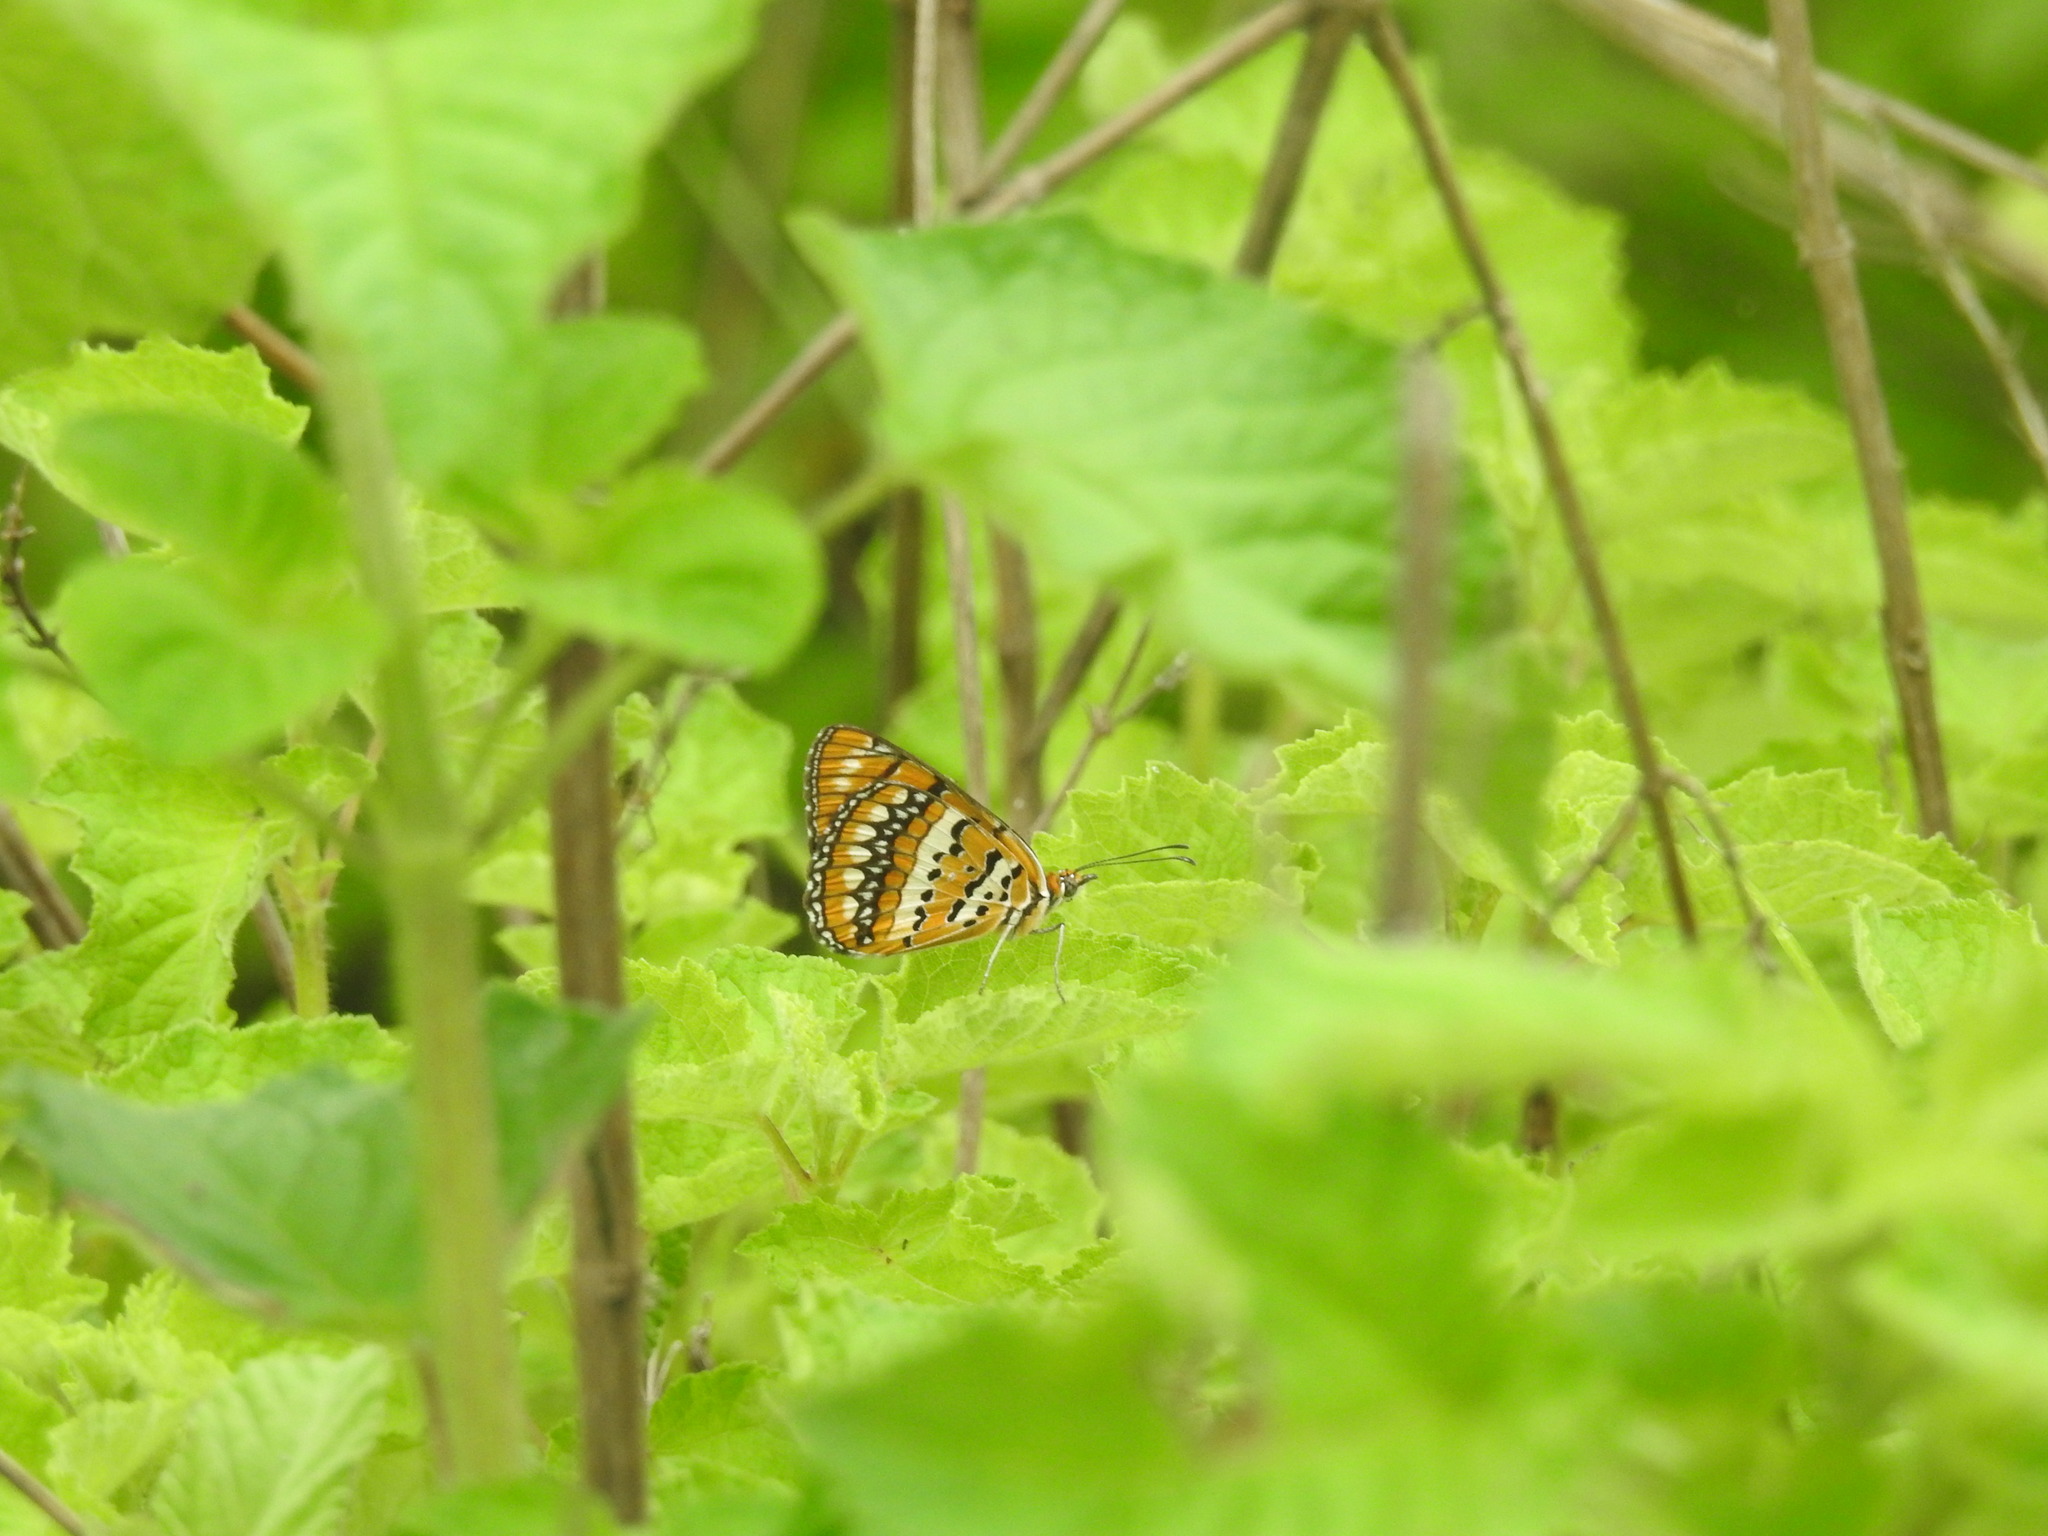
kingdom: Animalia
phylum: Arthropoda
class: Insecta
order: Lepidoptera
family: Nymphalidae
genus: Byblia
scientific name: Byblia ilithyia
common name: Spotted joker
